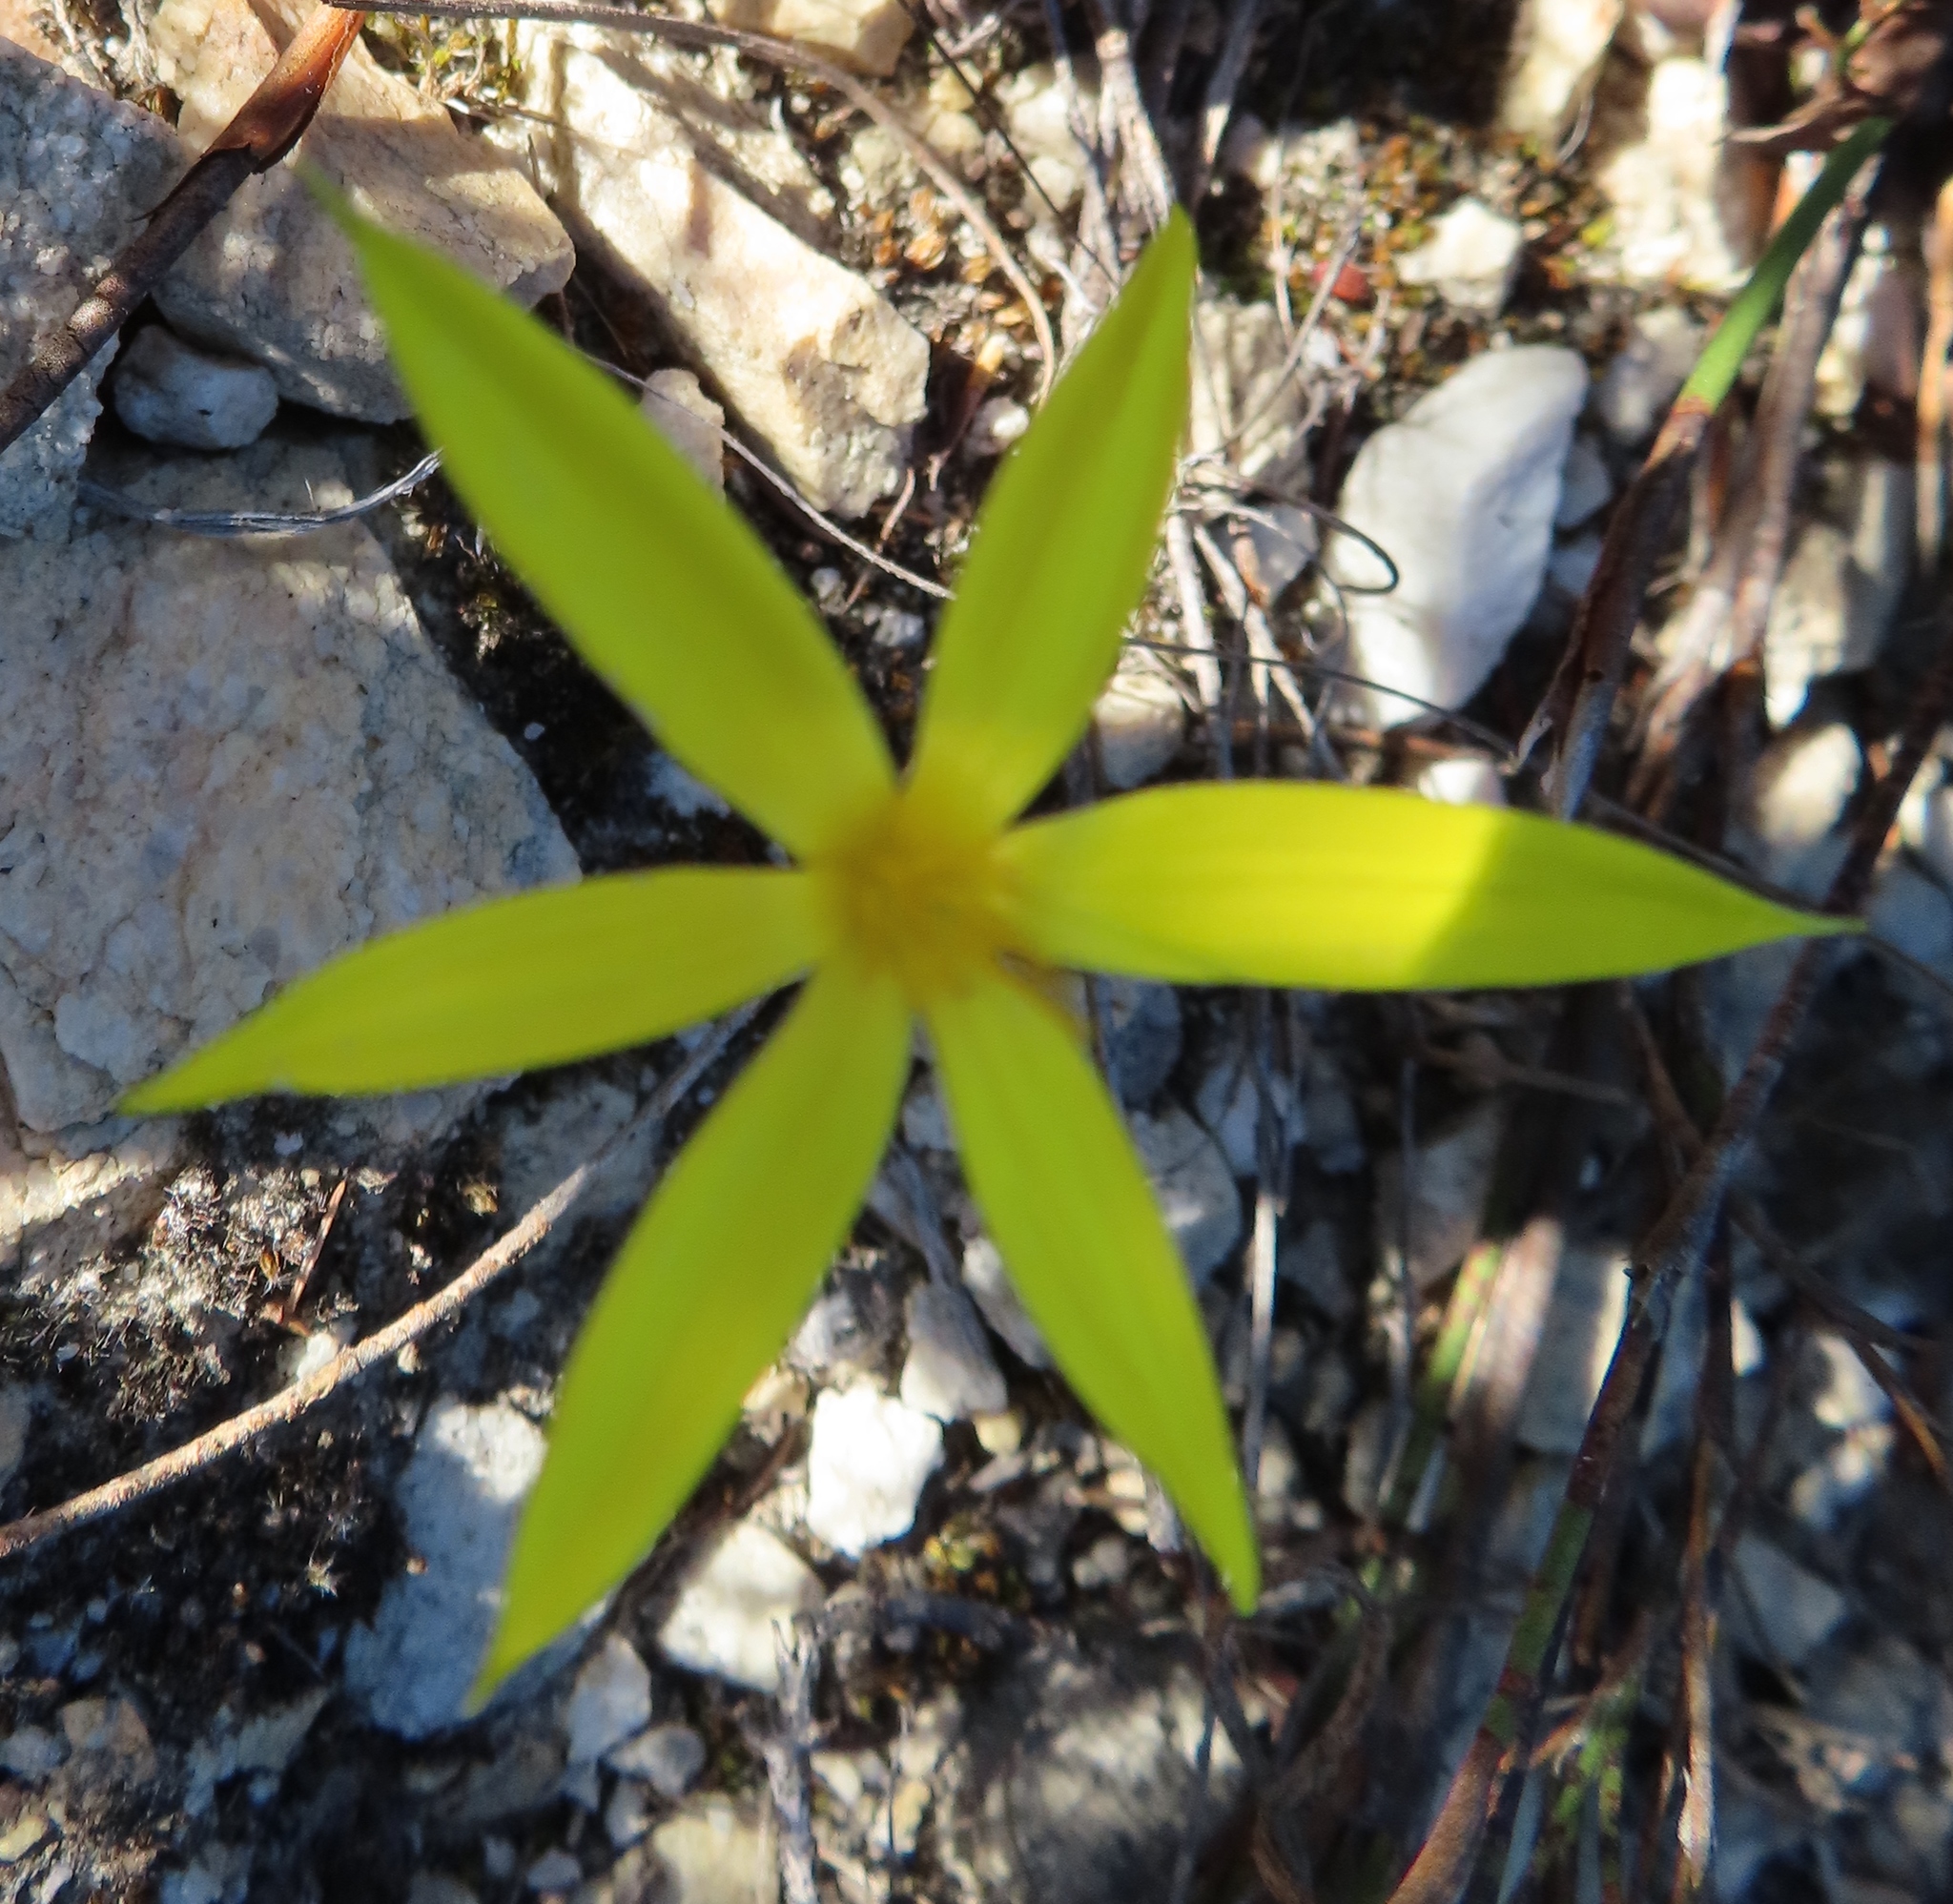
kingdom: Plantae
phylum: Tracheophyta
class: Liliopsida
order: Asparagales
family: Hypoxidaceae
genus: Empodium
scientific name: Empodium plicatum
